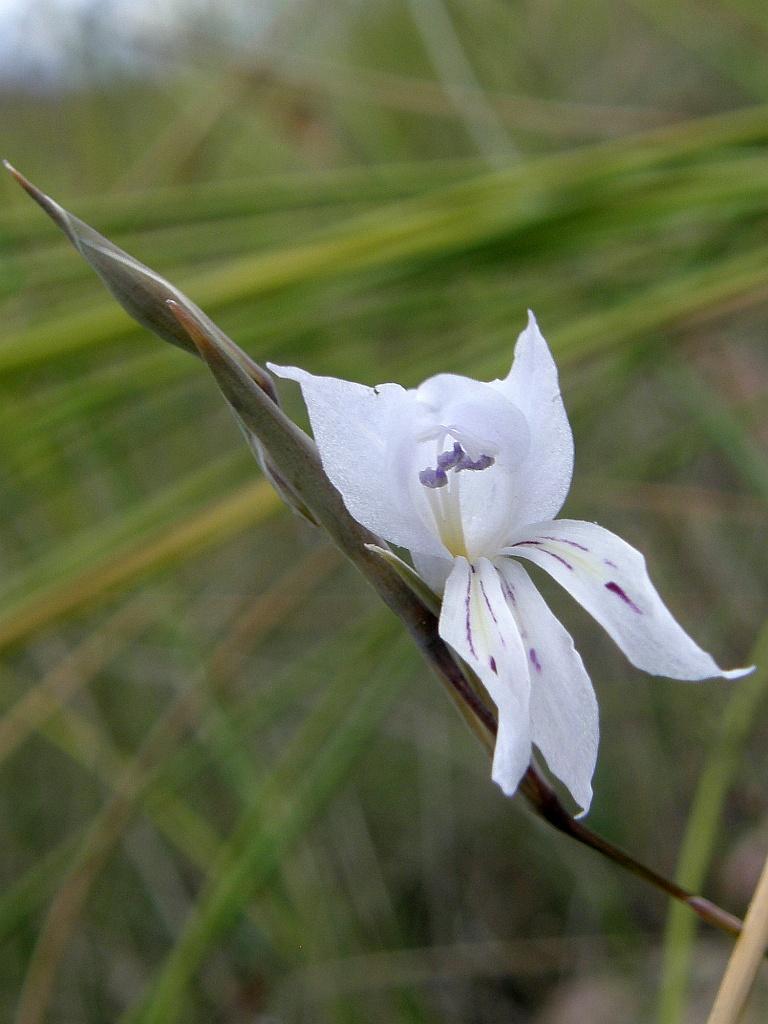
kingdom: Plantae
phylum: Tracheophyta
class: Liliopsida
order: Asparagales
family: Iridaceae
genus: Gladiolus
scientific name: Gladiolus vaginatus
